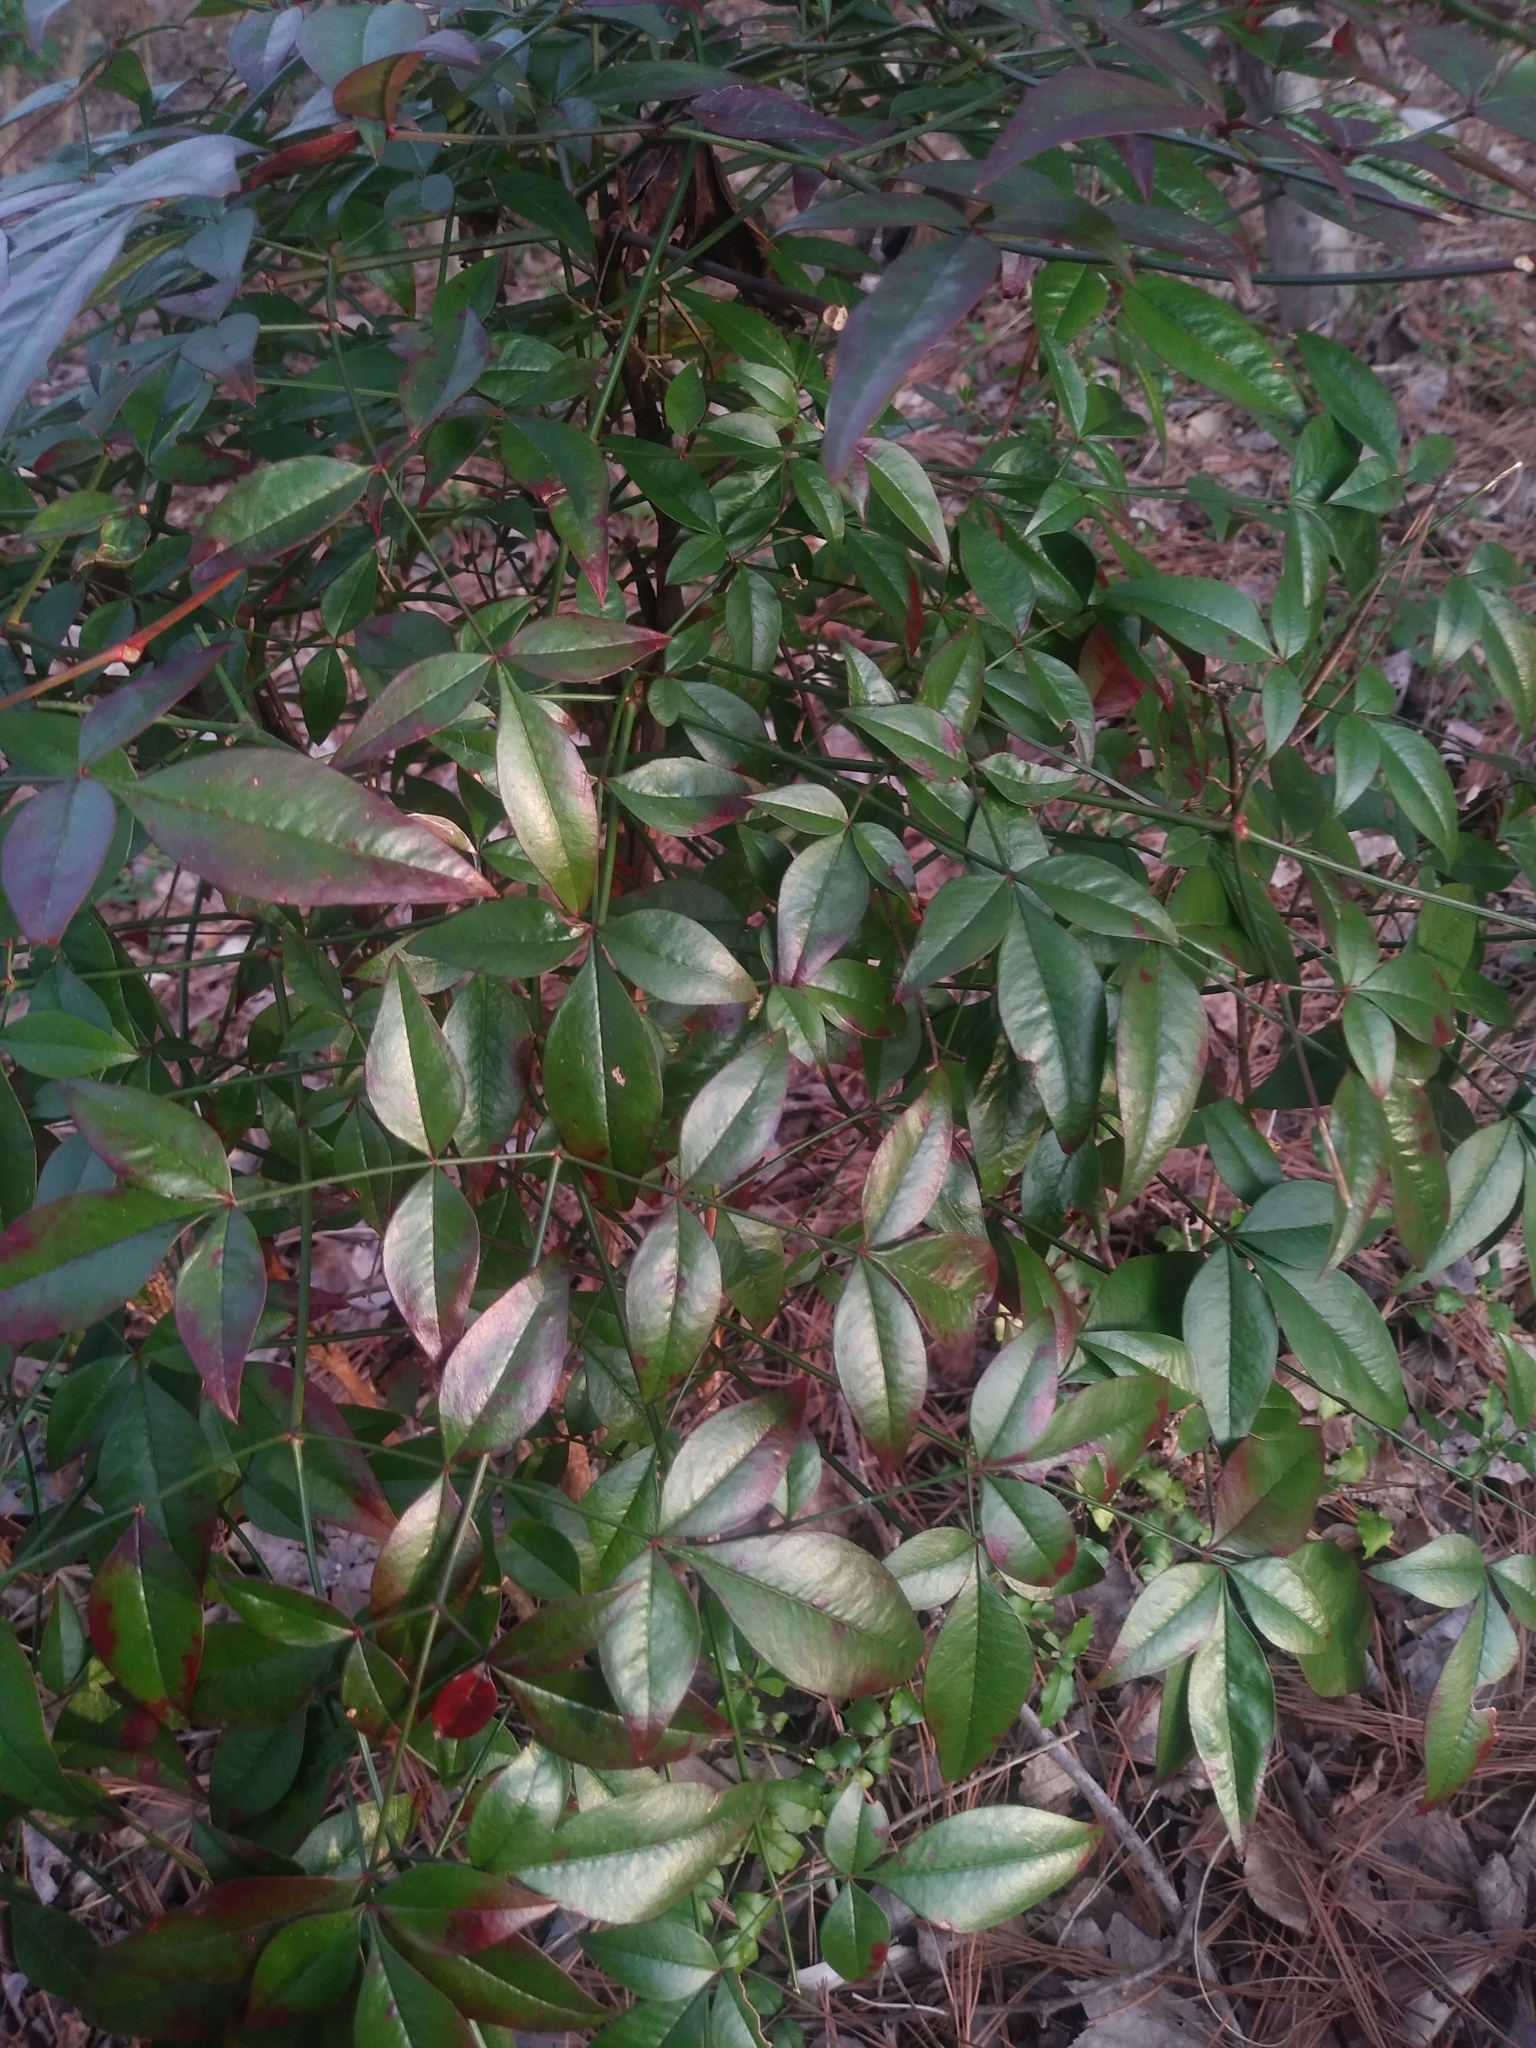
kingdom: Plantae
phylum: Tracheophyta
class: Magnoliopsida
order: Ranunculales
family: Berberidaceae
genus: Nandina
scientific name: Nandina domestica
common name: Sacred bamboo
